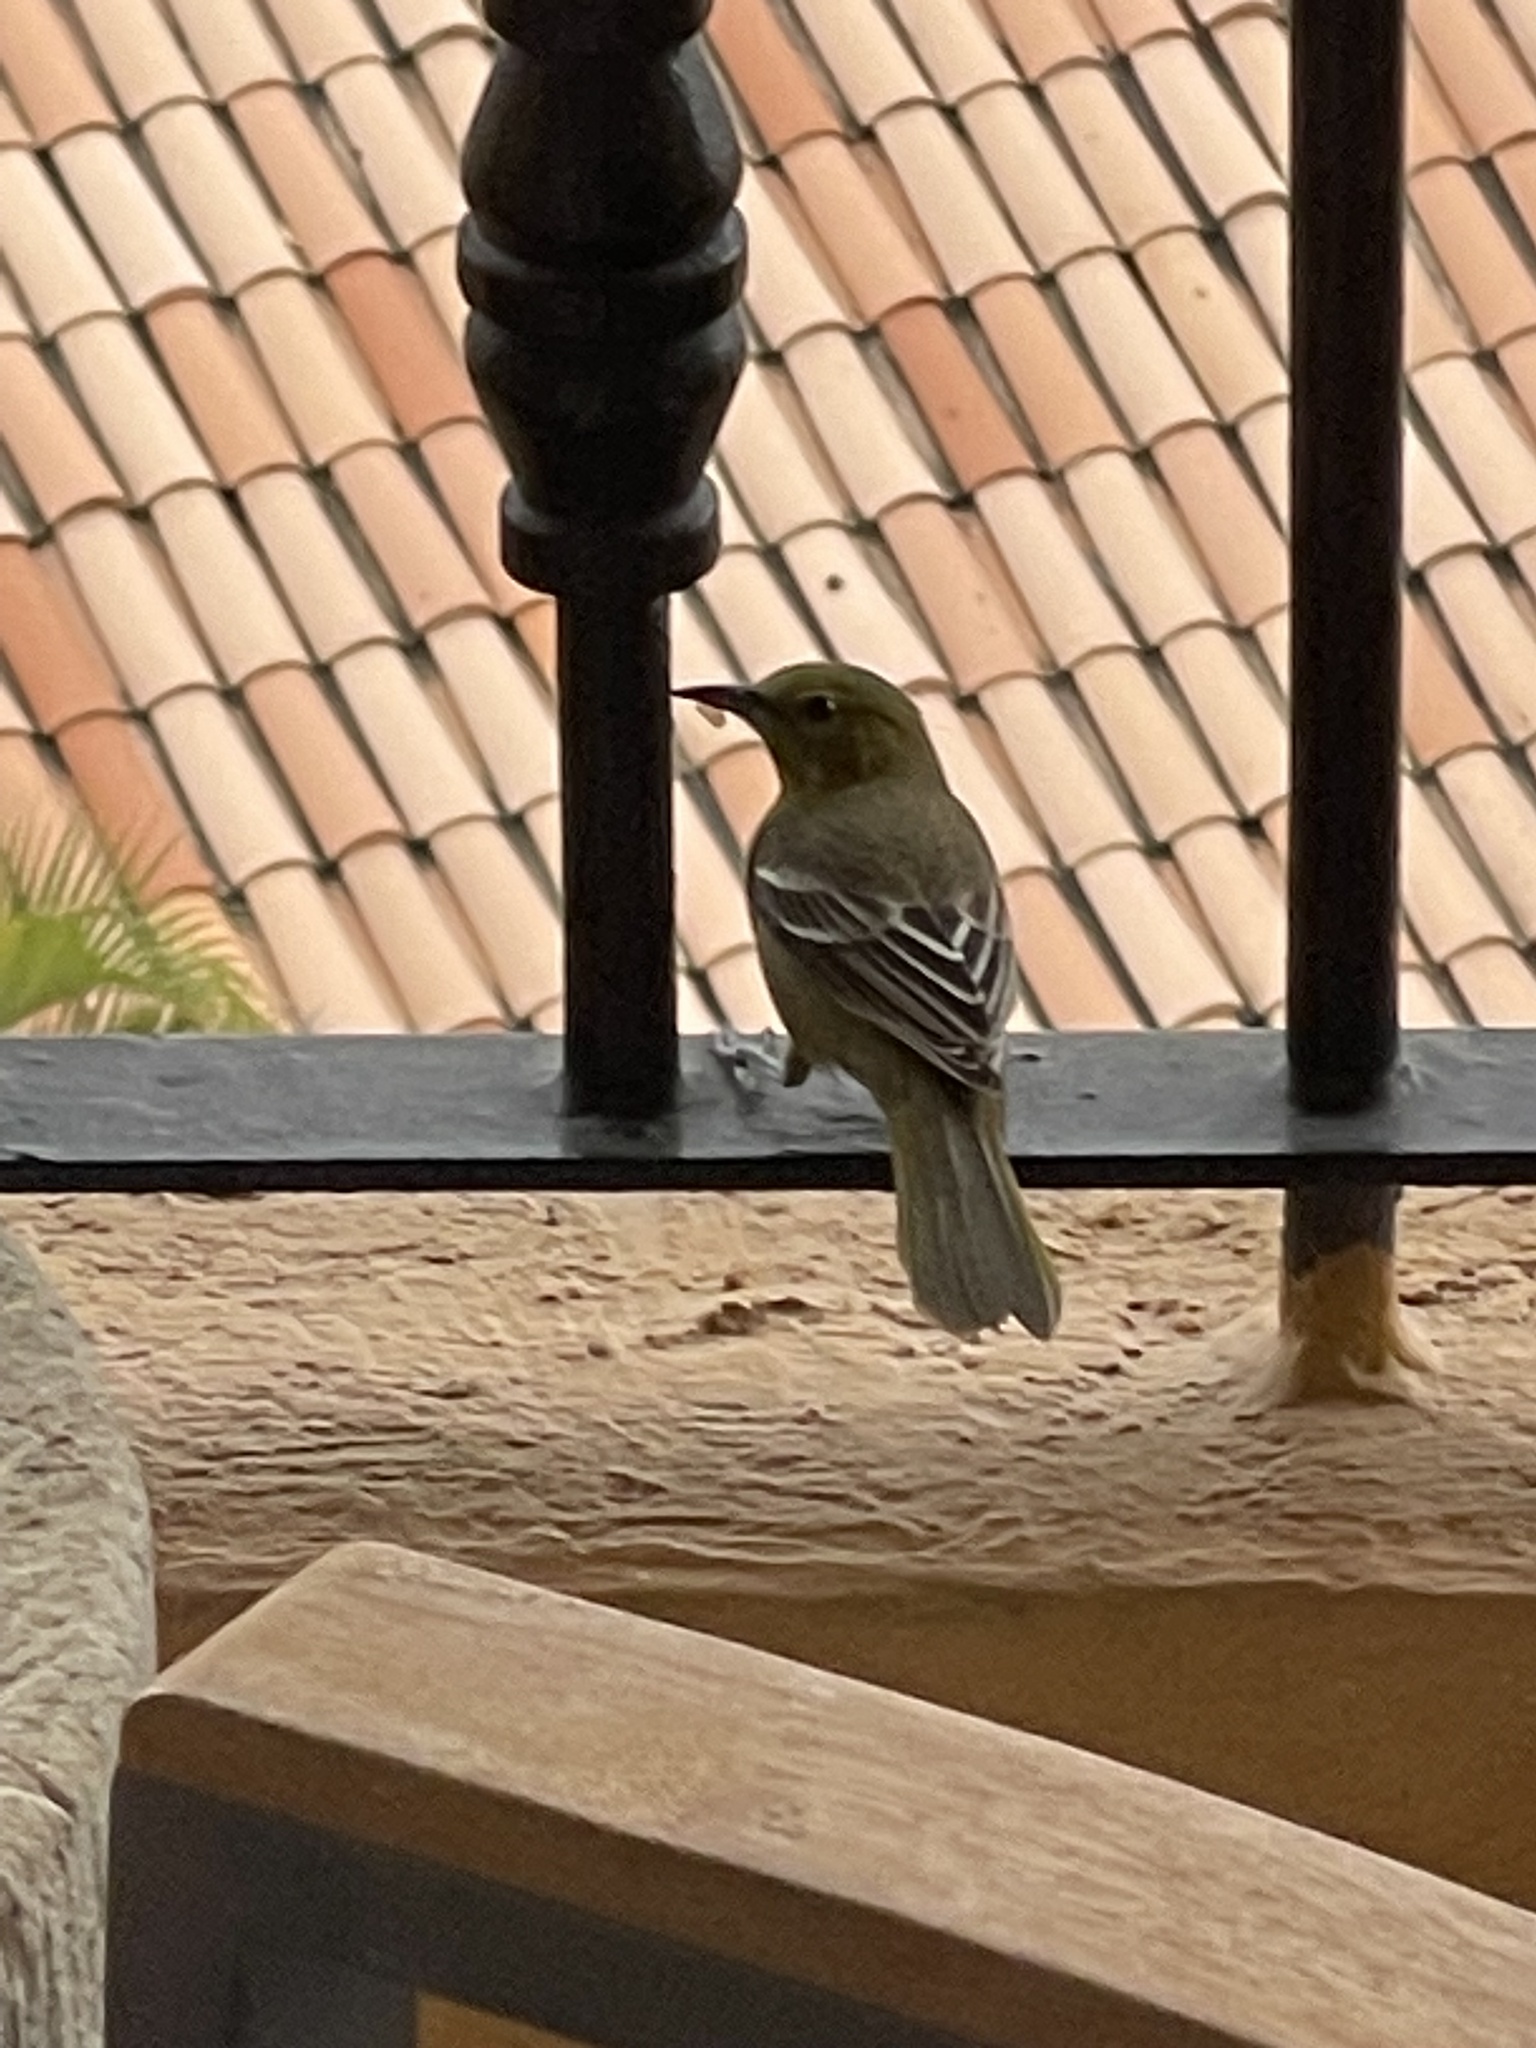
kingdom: Animalia
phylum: Chordata
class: Aves
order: Passeriformes
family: Icteridae
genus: Icterus
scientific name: Icterus cucullatus
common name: Hooded oriole
